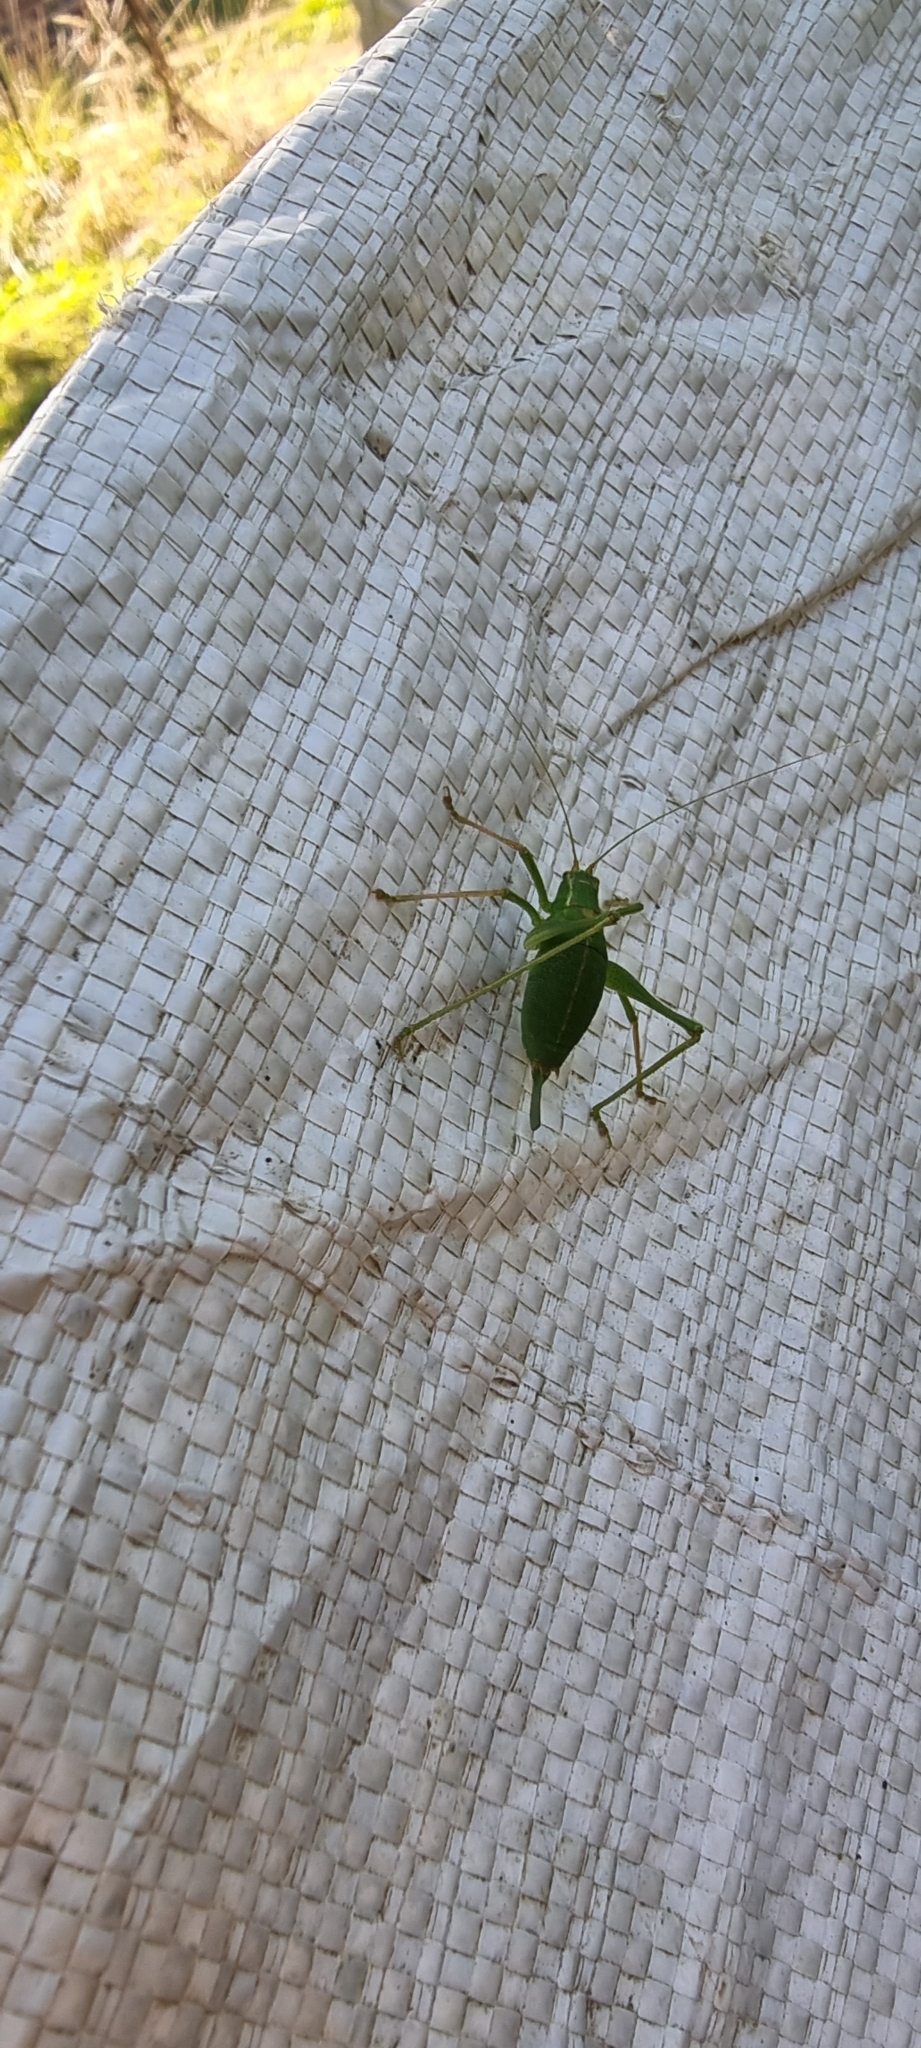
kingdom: Animalia
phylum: Arthropoda
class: Insecta
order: Orthoptera
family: Tettigoniidae
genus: Leptophyes
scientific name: Leptophyes punctatissima
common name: Speckled bush-cricket
